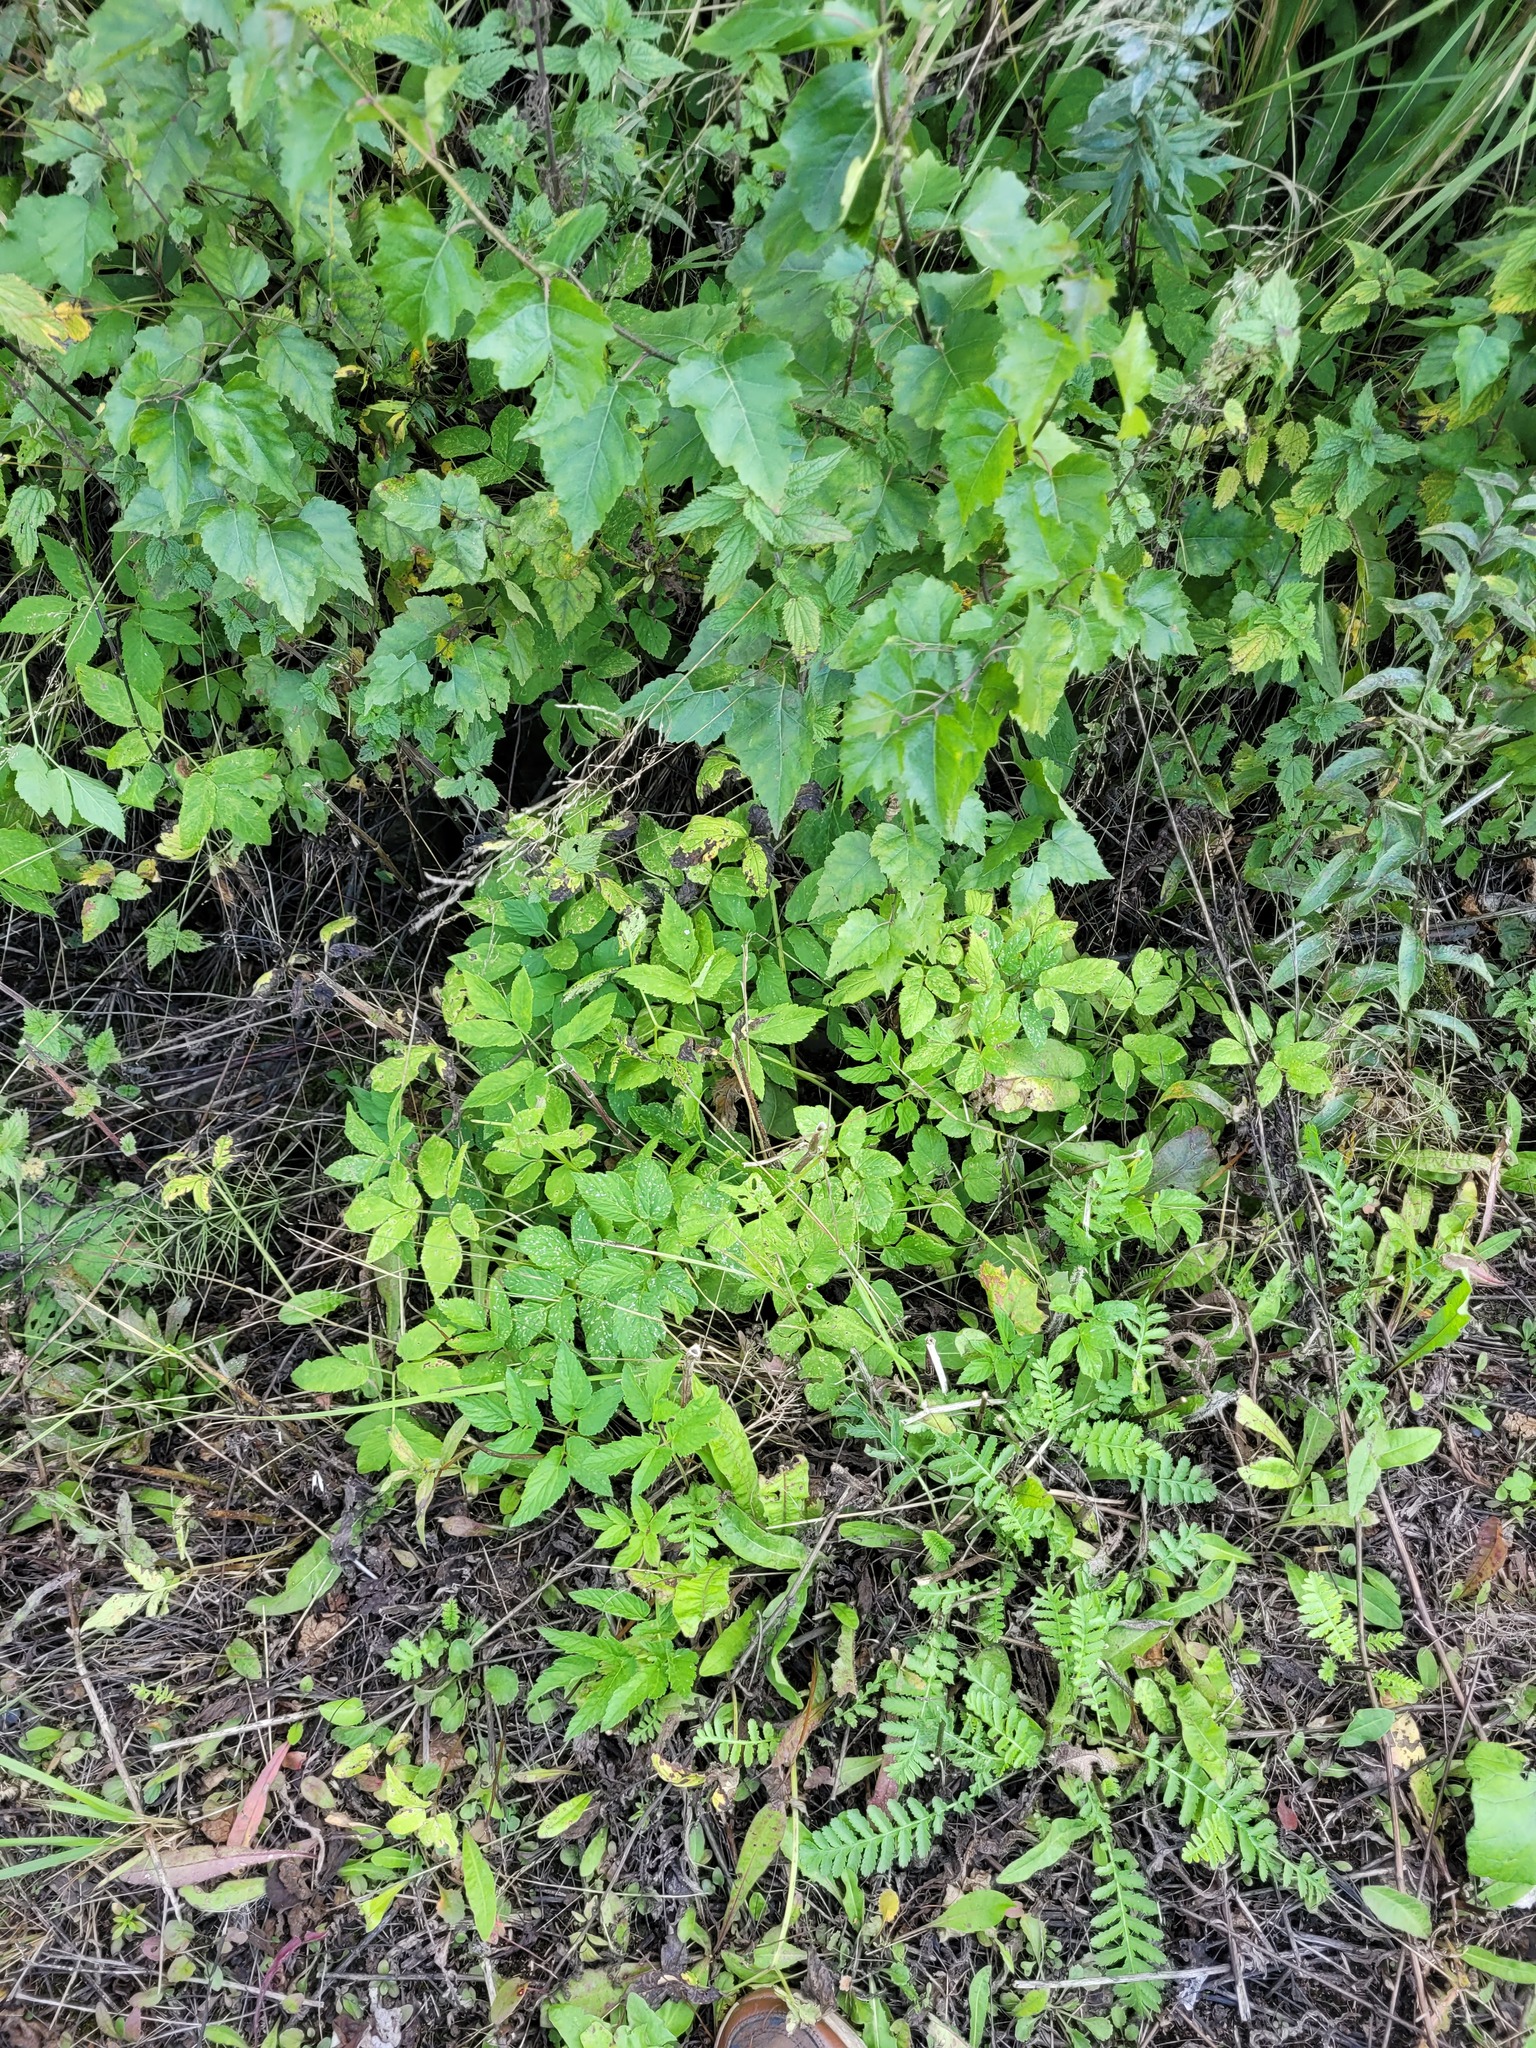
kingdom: Plantae
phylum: Tracheophyta
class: Magnoliopsida
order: Apiales
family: Apiaceae
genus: Aegopodium
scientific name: Aegopodium podagraria
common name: Ground-elder
